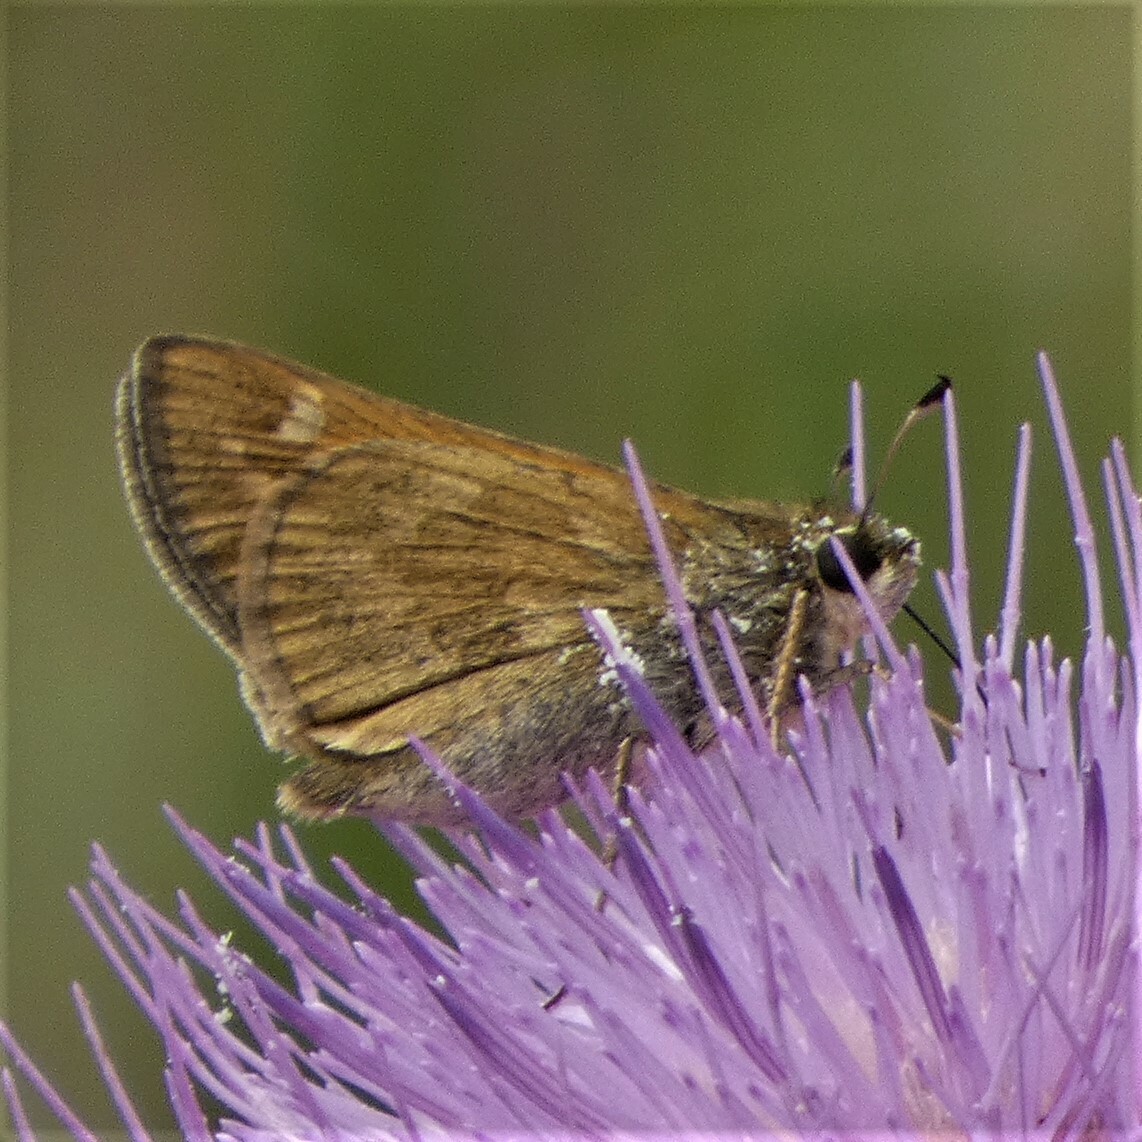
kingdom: Animalia
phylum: Arthropoda
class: Insecta
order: Lepidoptera
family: Hesperiidae
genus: Atalopedes
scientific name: Atalopedes
